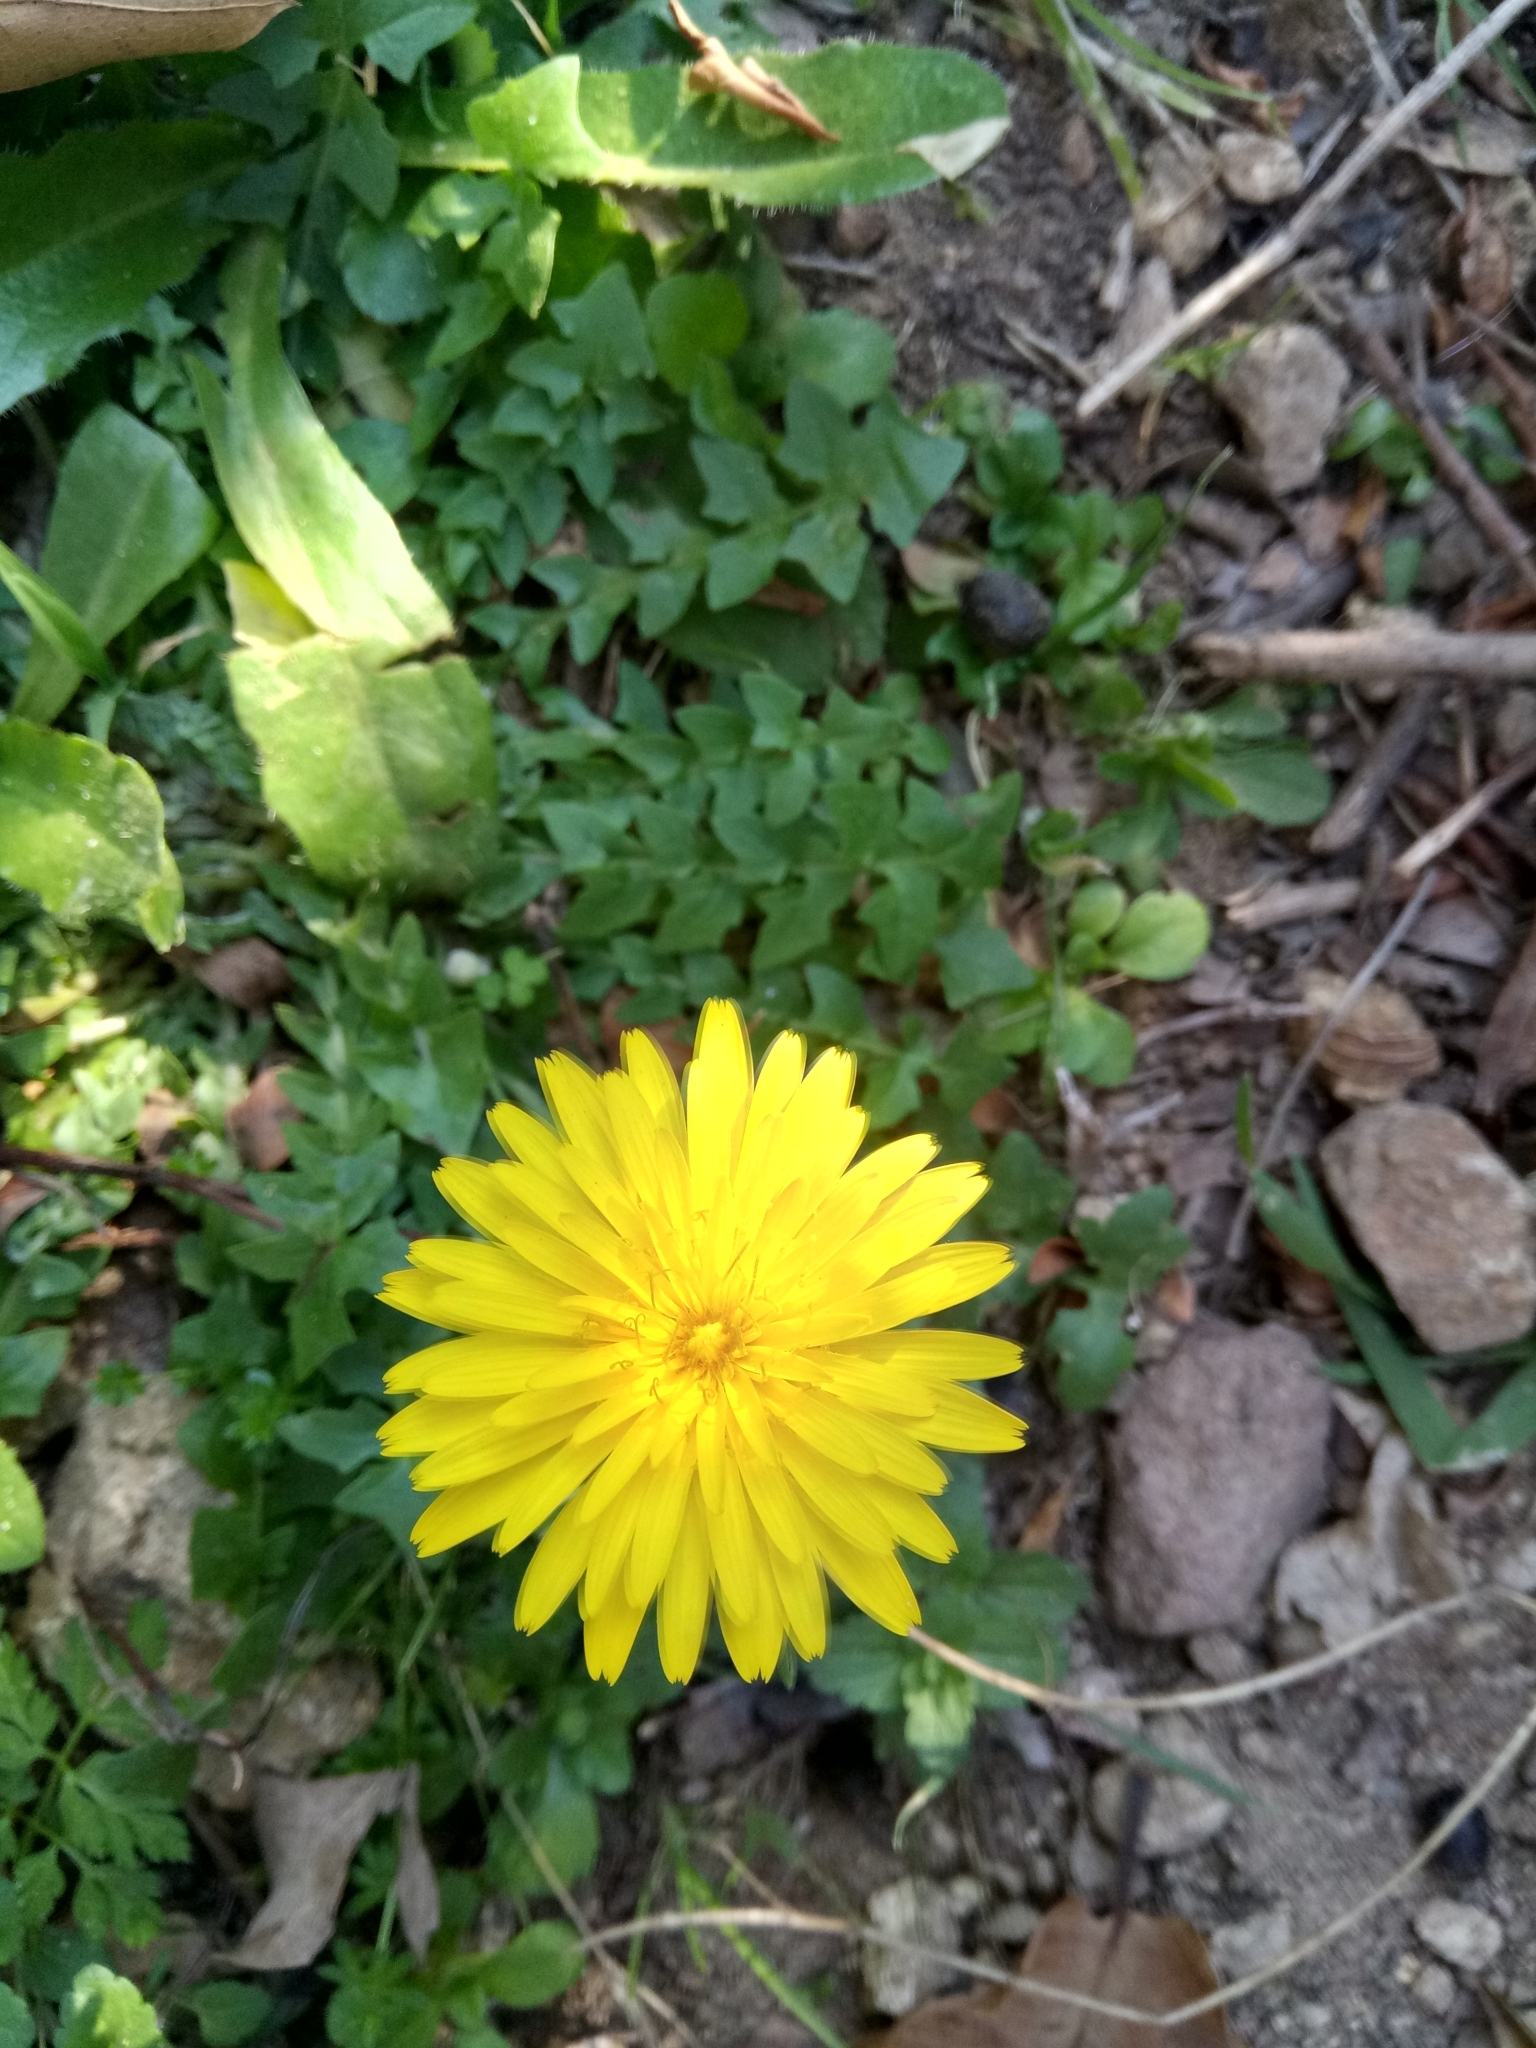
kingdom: Plantae
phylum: Tracheophyta
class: Magnoliopsida
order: Asterales
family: Asteraceae
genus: Hyoseris
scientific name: Hyoseris radiata
